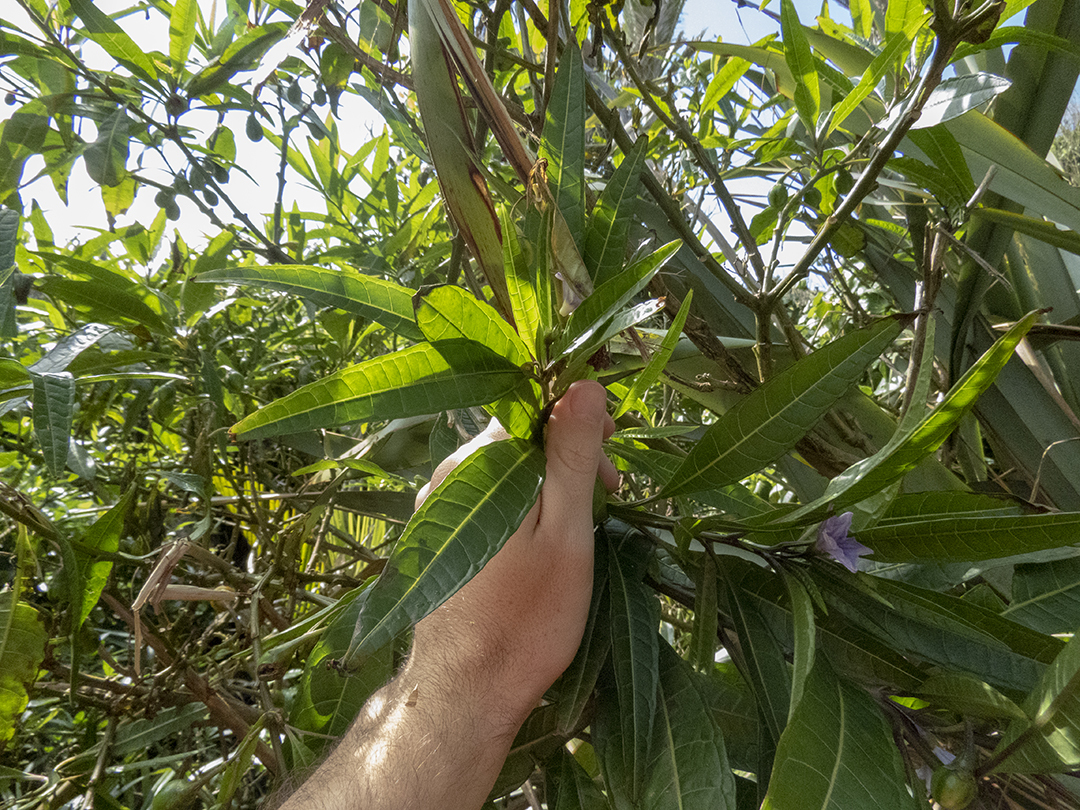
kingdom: Plantae
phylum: Tracheophyta
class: Magnoliopsida
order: Solanales
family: Solanaceae
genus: Solanum
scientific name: Solanum aviculare
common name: New zealand nightshade
